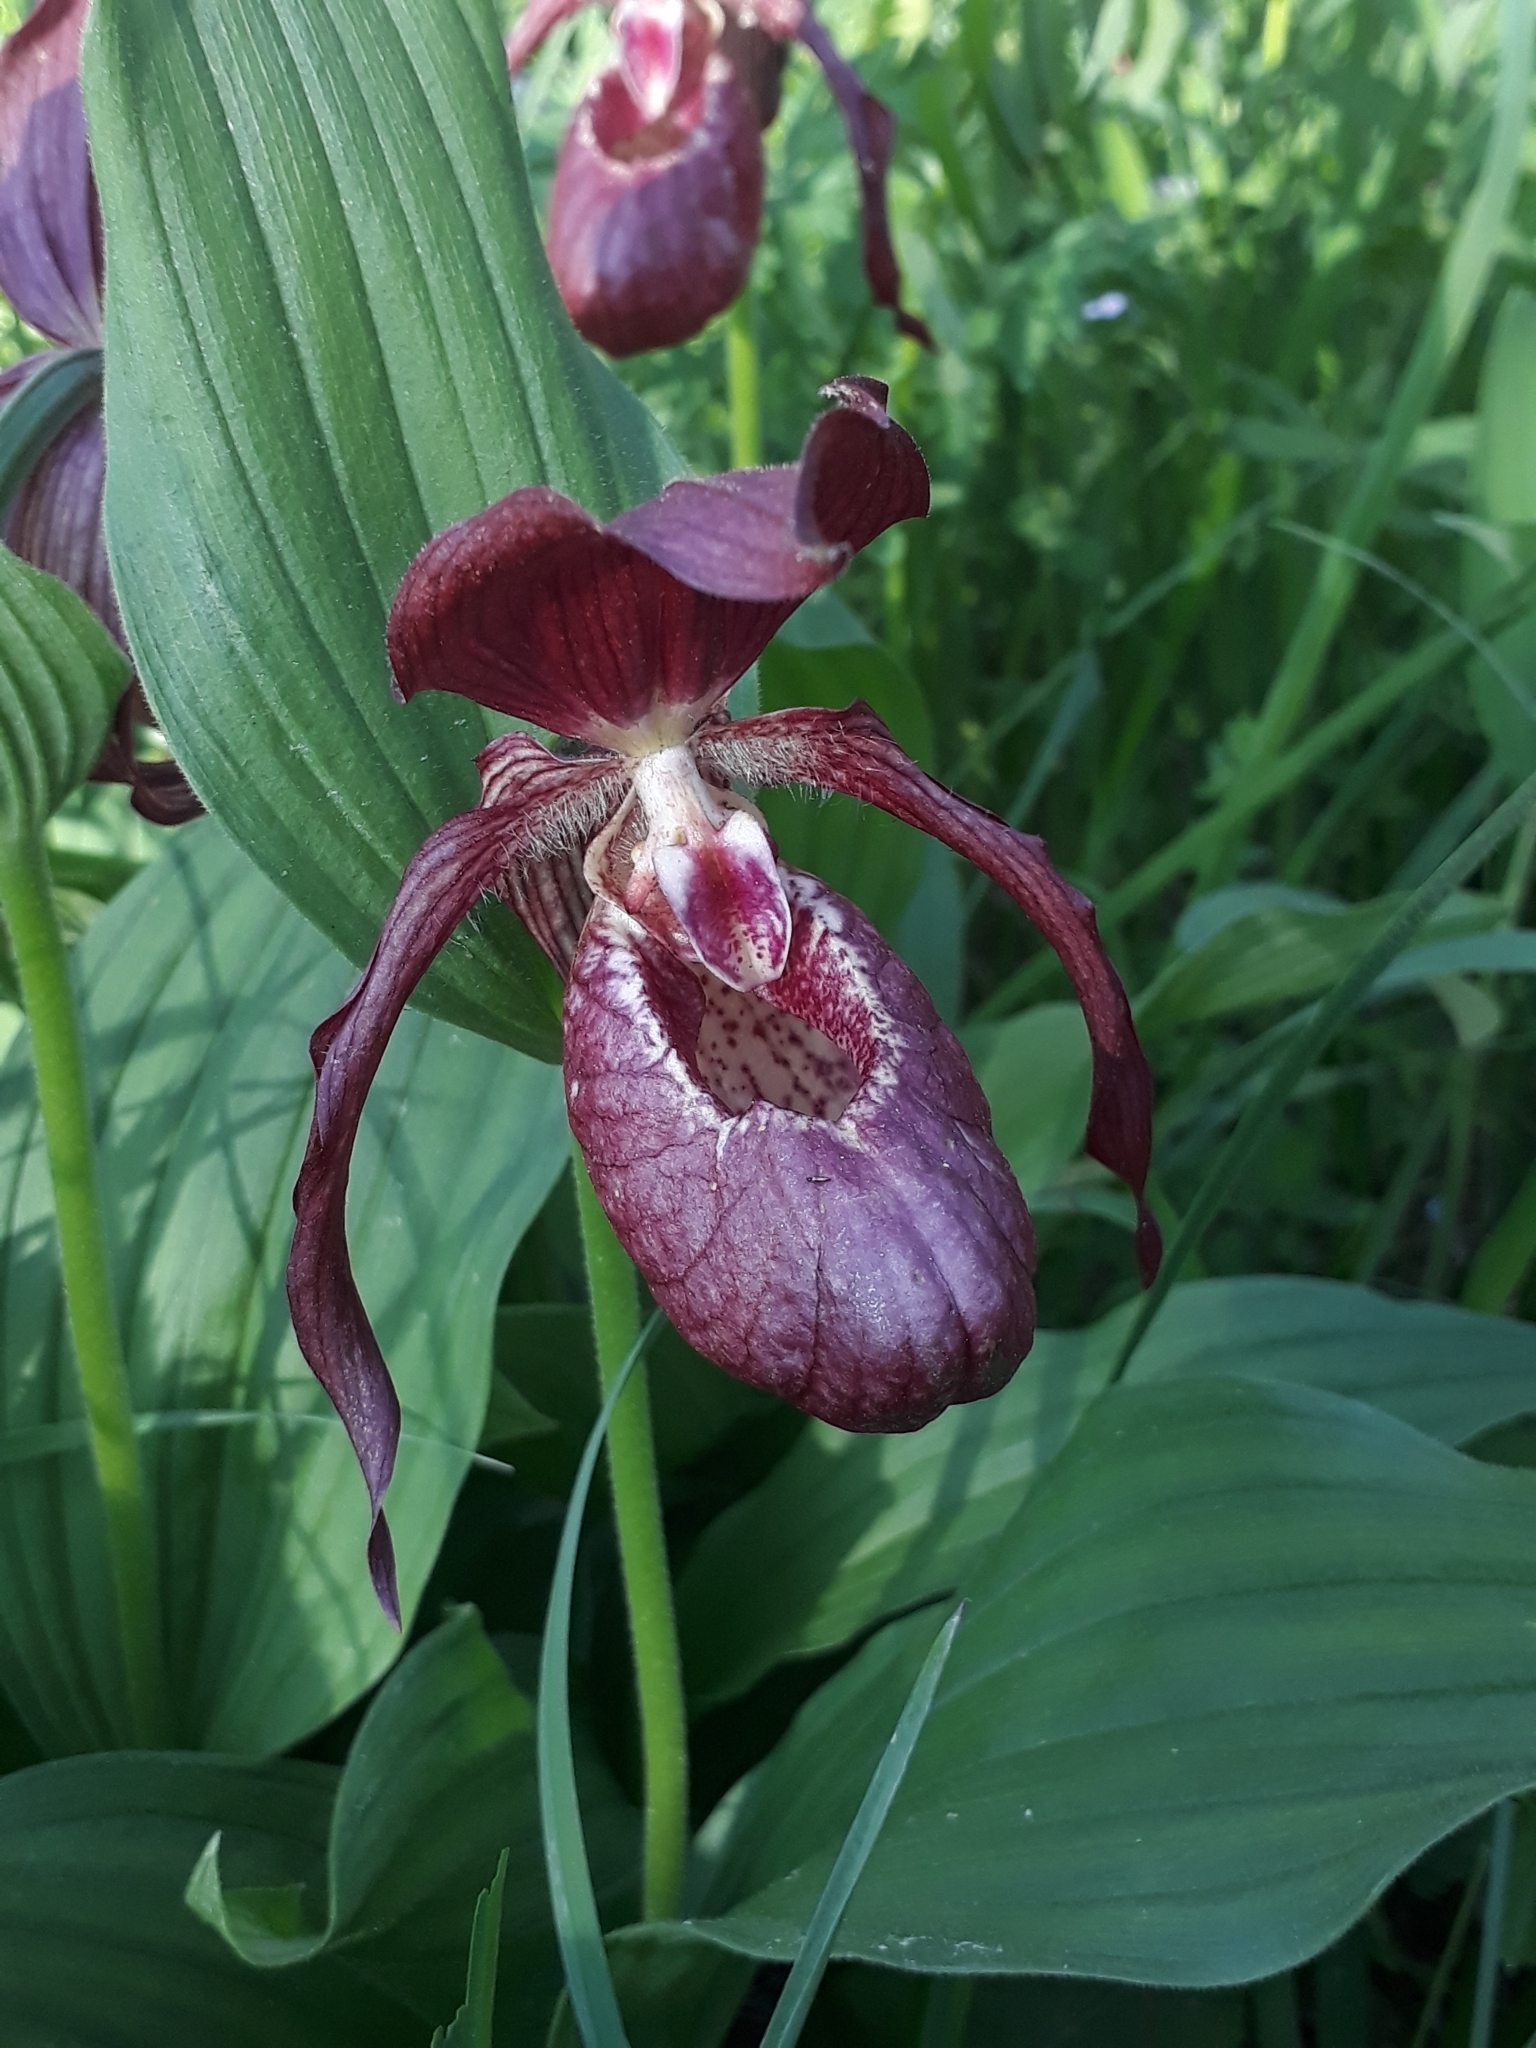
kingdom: Plantae
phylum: Tracheophyta
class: Liliopsida
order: Asparagales
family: Orchidaceae
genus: Cypripedium
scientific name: Cypripedium ventricosum
